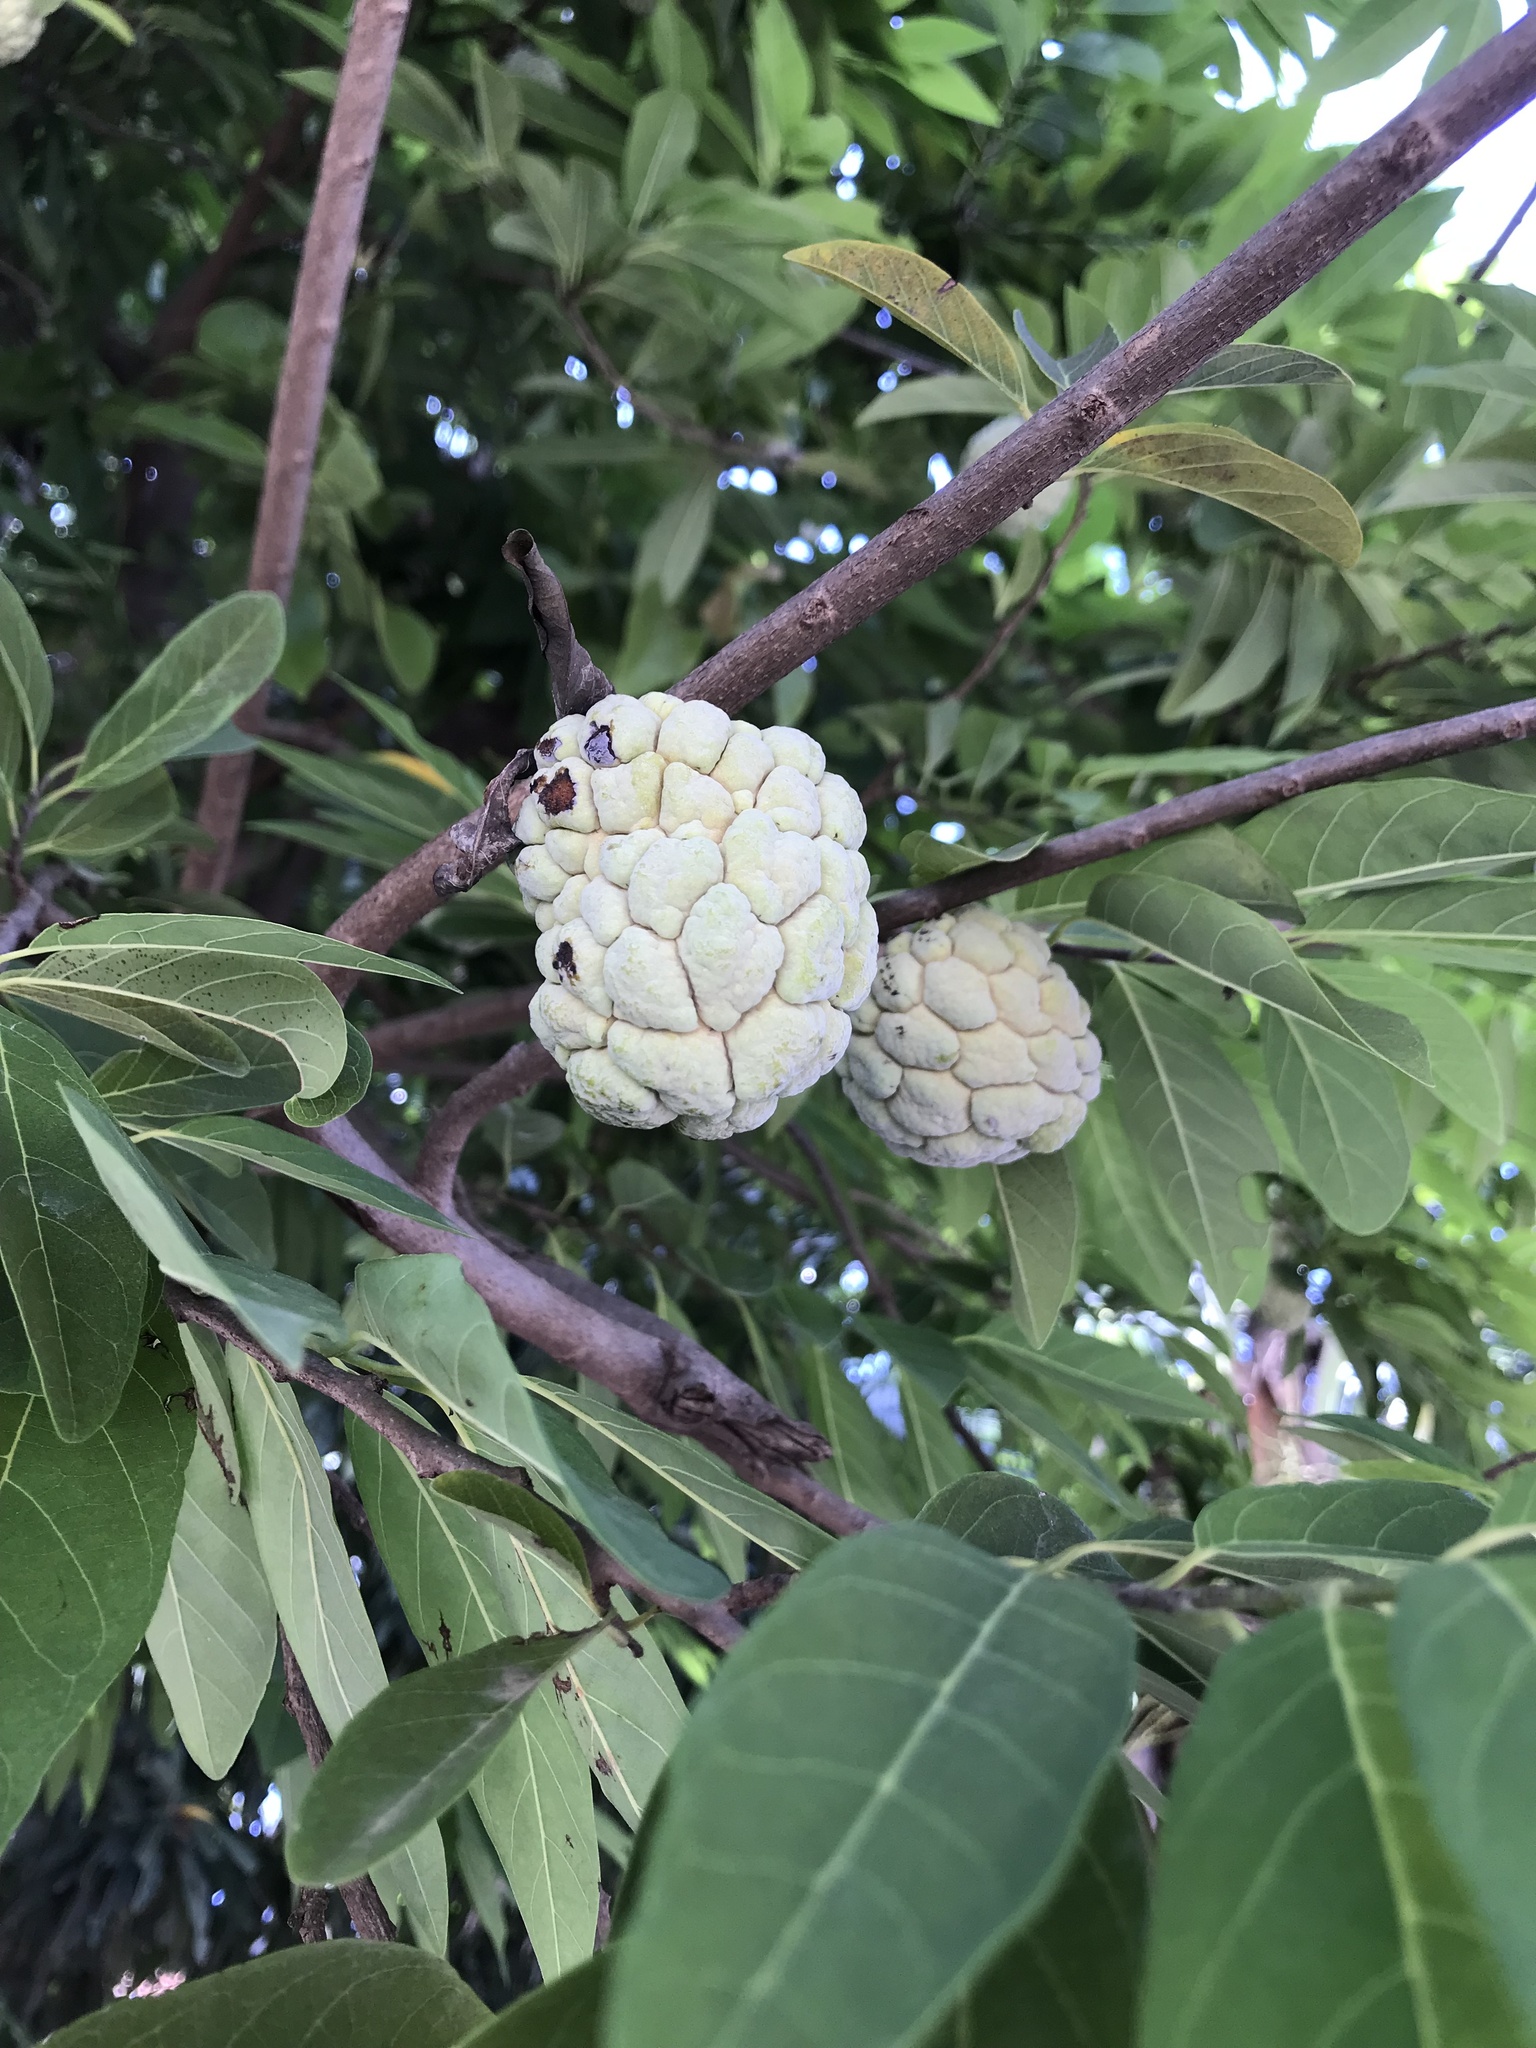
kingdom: Plantae
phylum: Tracheophyta
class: Magnoliopsida
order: Magnoliales
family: Annonaceae
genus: Annona
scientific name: Annona squamosa
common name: Custard-apple
